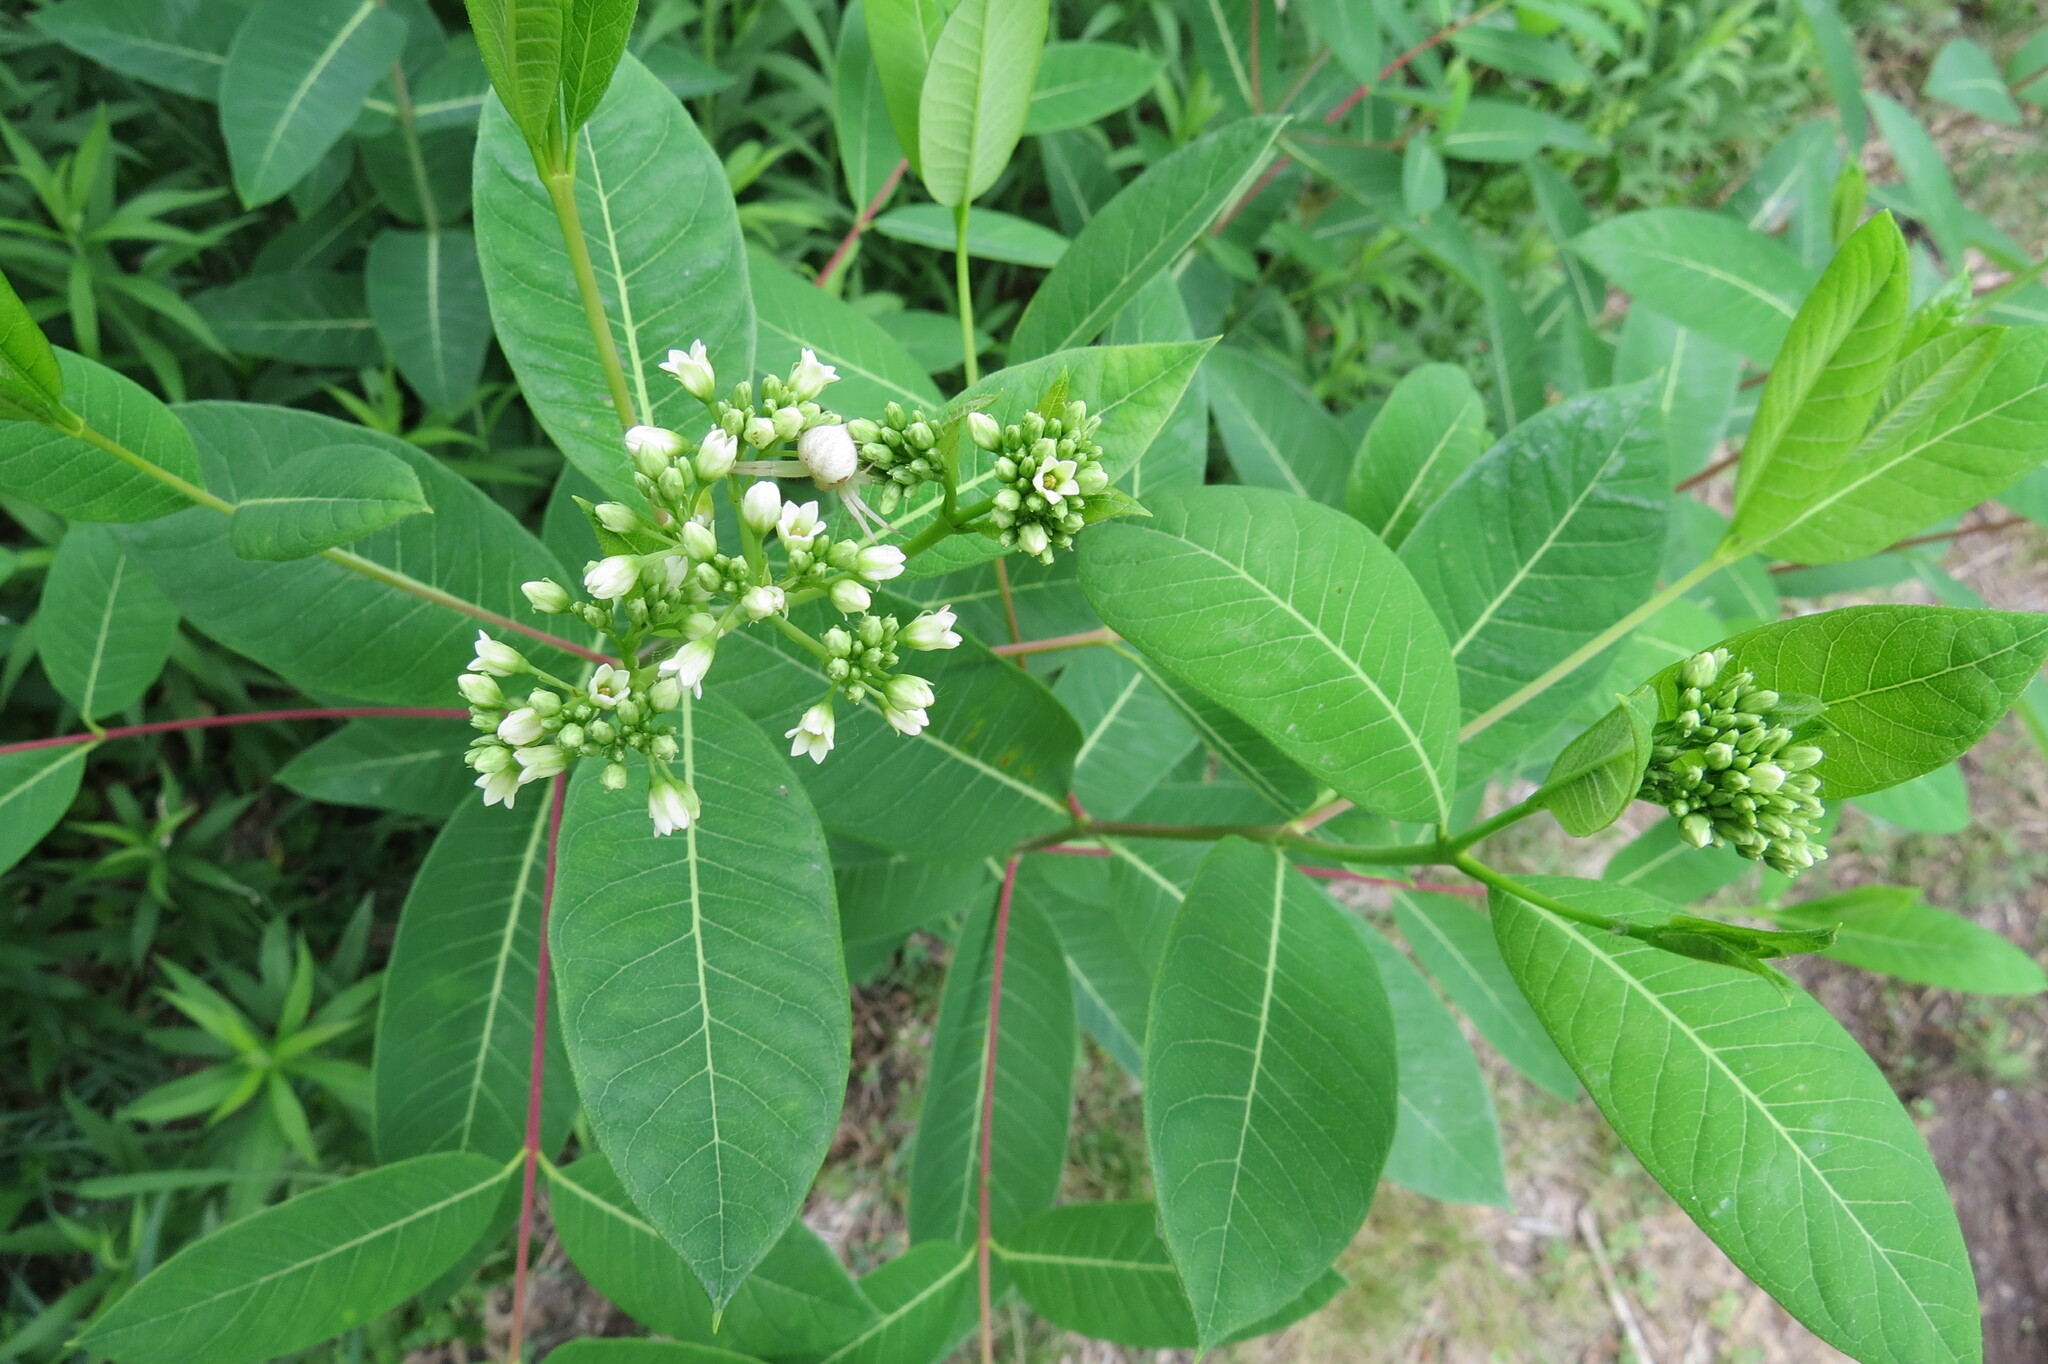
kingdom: Plantae
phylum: Tracheophyta
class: Magnoliopsida
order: Gentianales
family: Apocynaceae
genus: Apocynum
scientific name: Apocynum cannabinum
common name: Hemp dogbane
